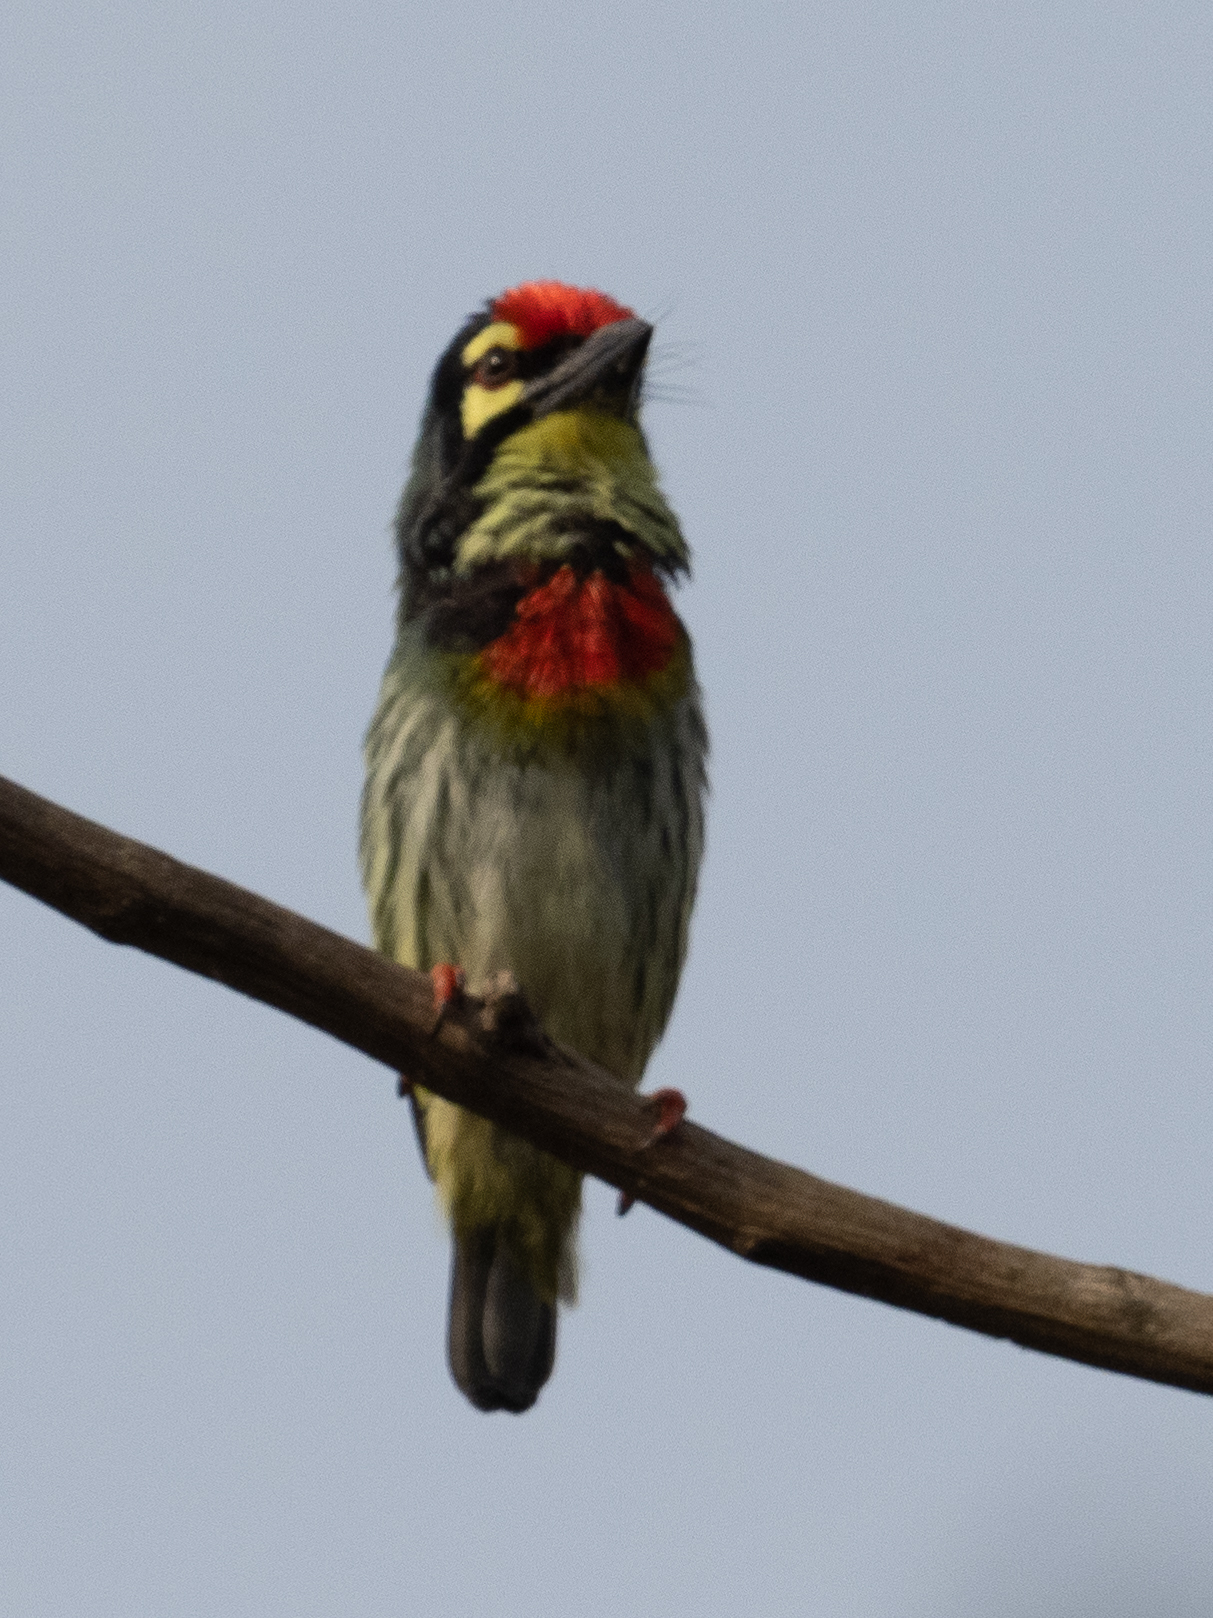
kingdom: Animalia
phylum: Chordata
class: Aves
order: Piciformes
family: Megalaimidae
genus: Psilopogon
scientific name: Psilopogon haemacephalus
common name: Coppersmith barbet
